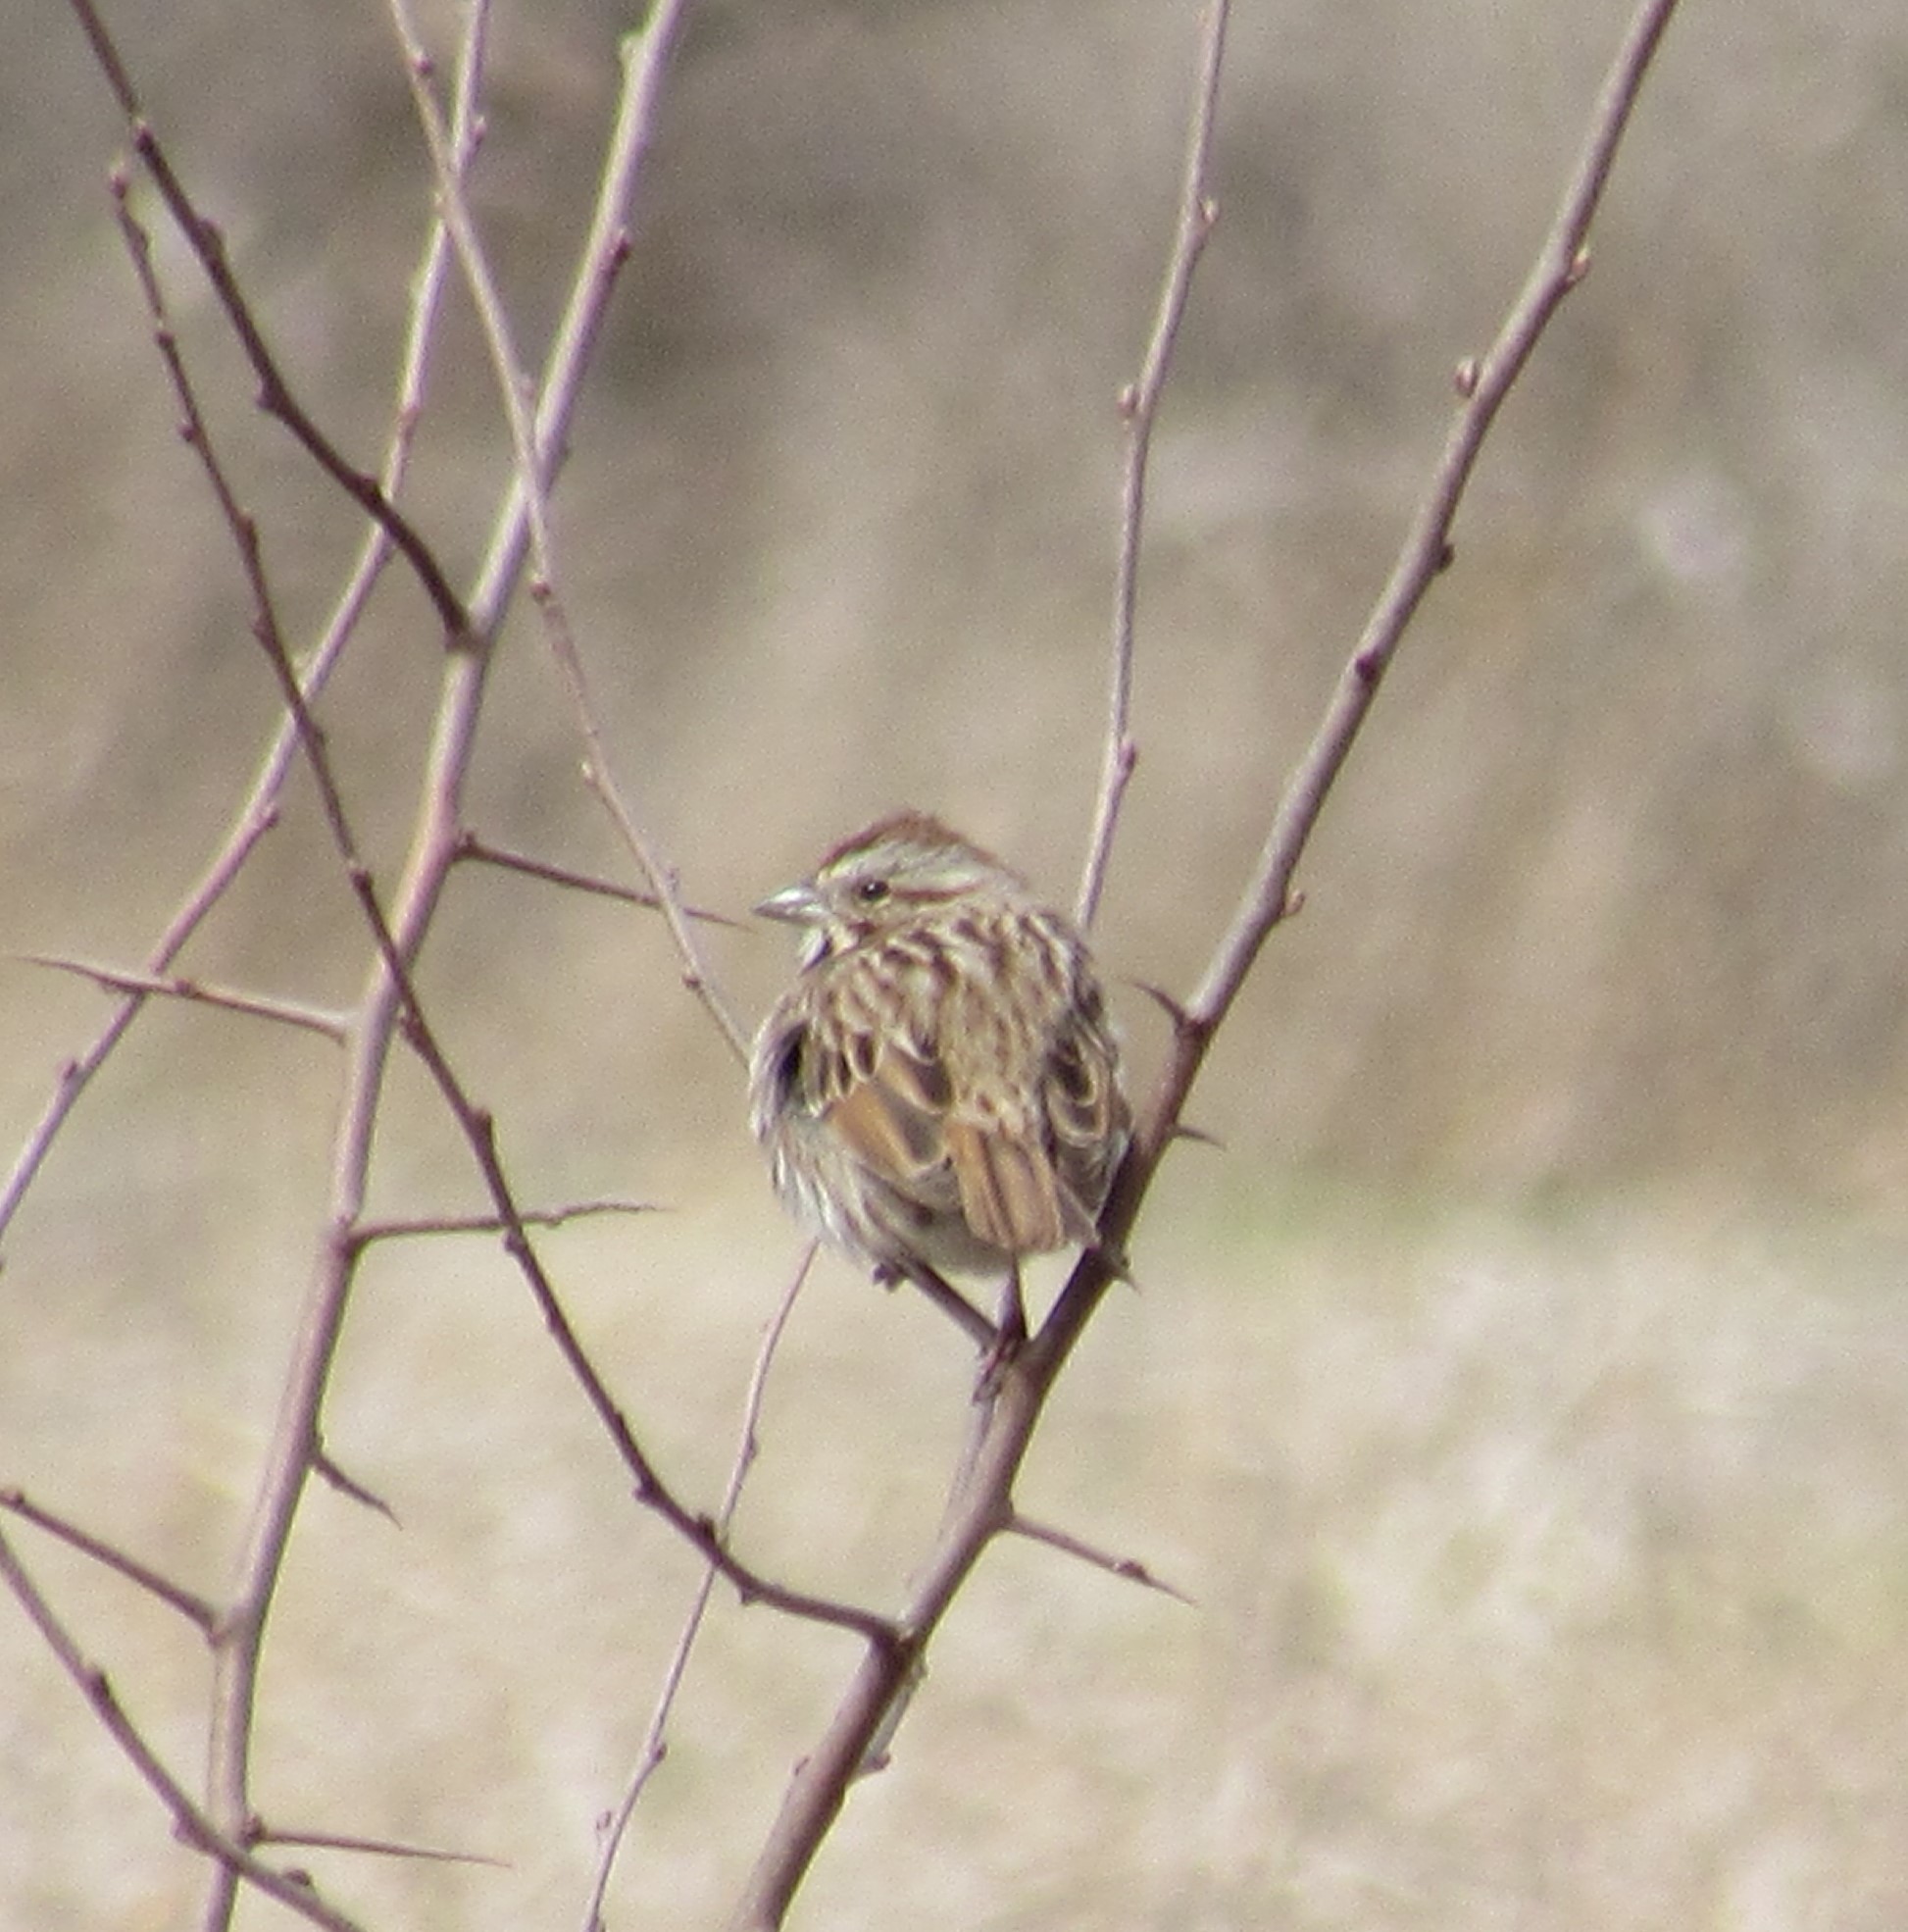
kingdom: Animalia
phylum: Chordata
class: Aves
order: Passeriformes
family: Passerellidae
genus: Melospiza
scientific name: Melospiza melodia
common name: Song sparrow
